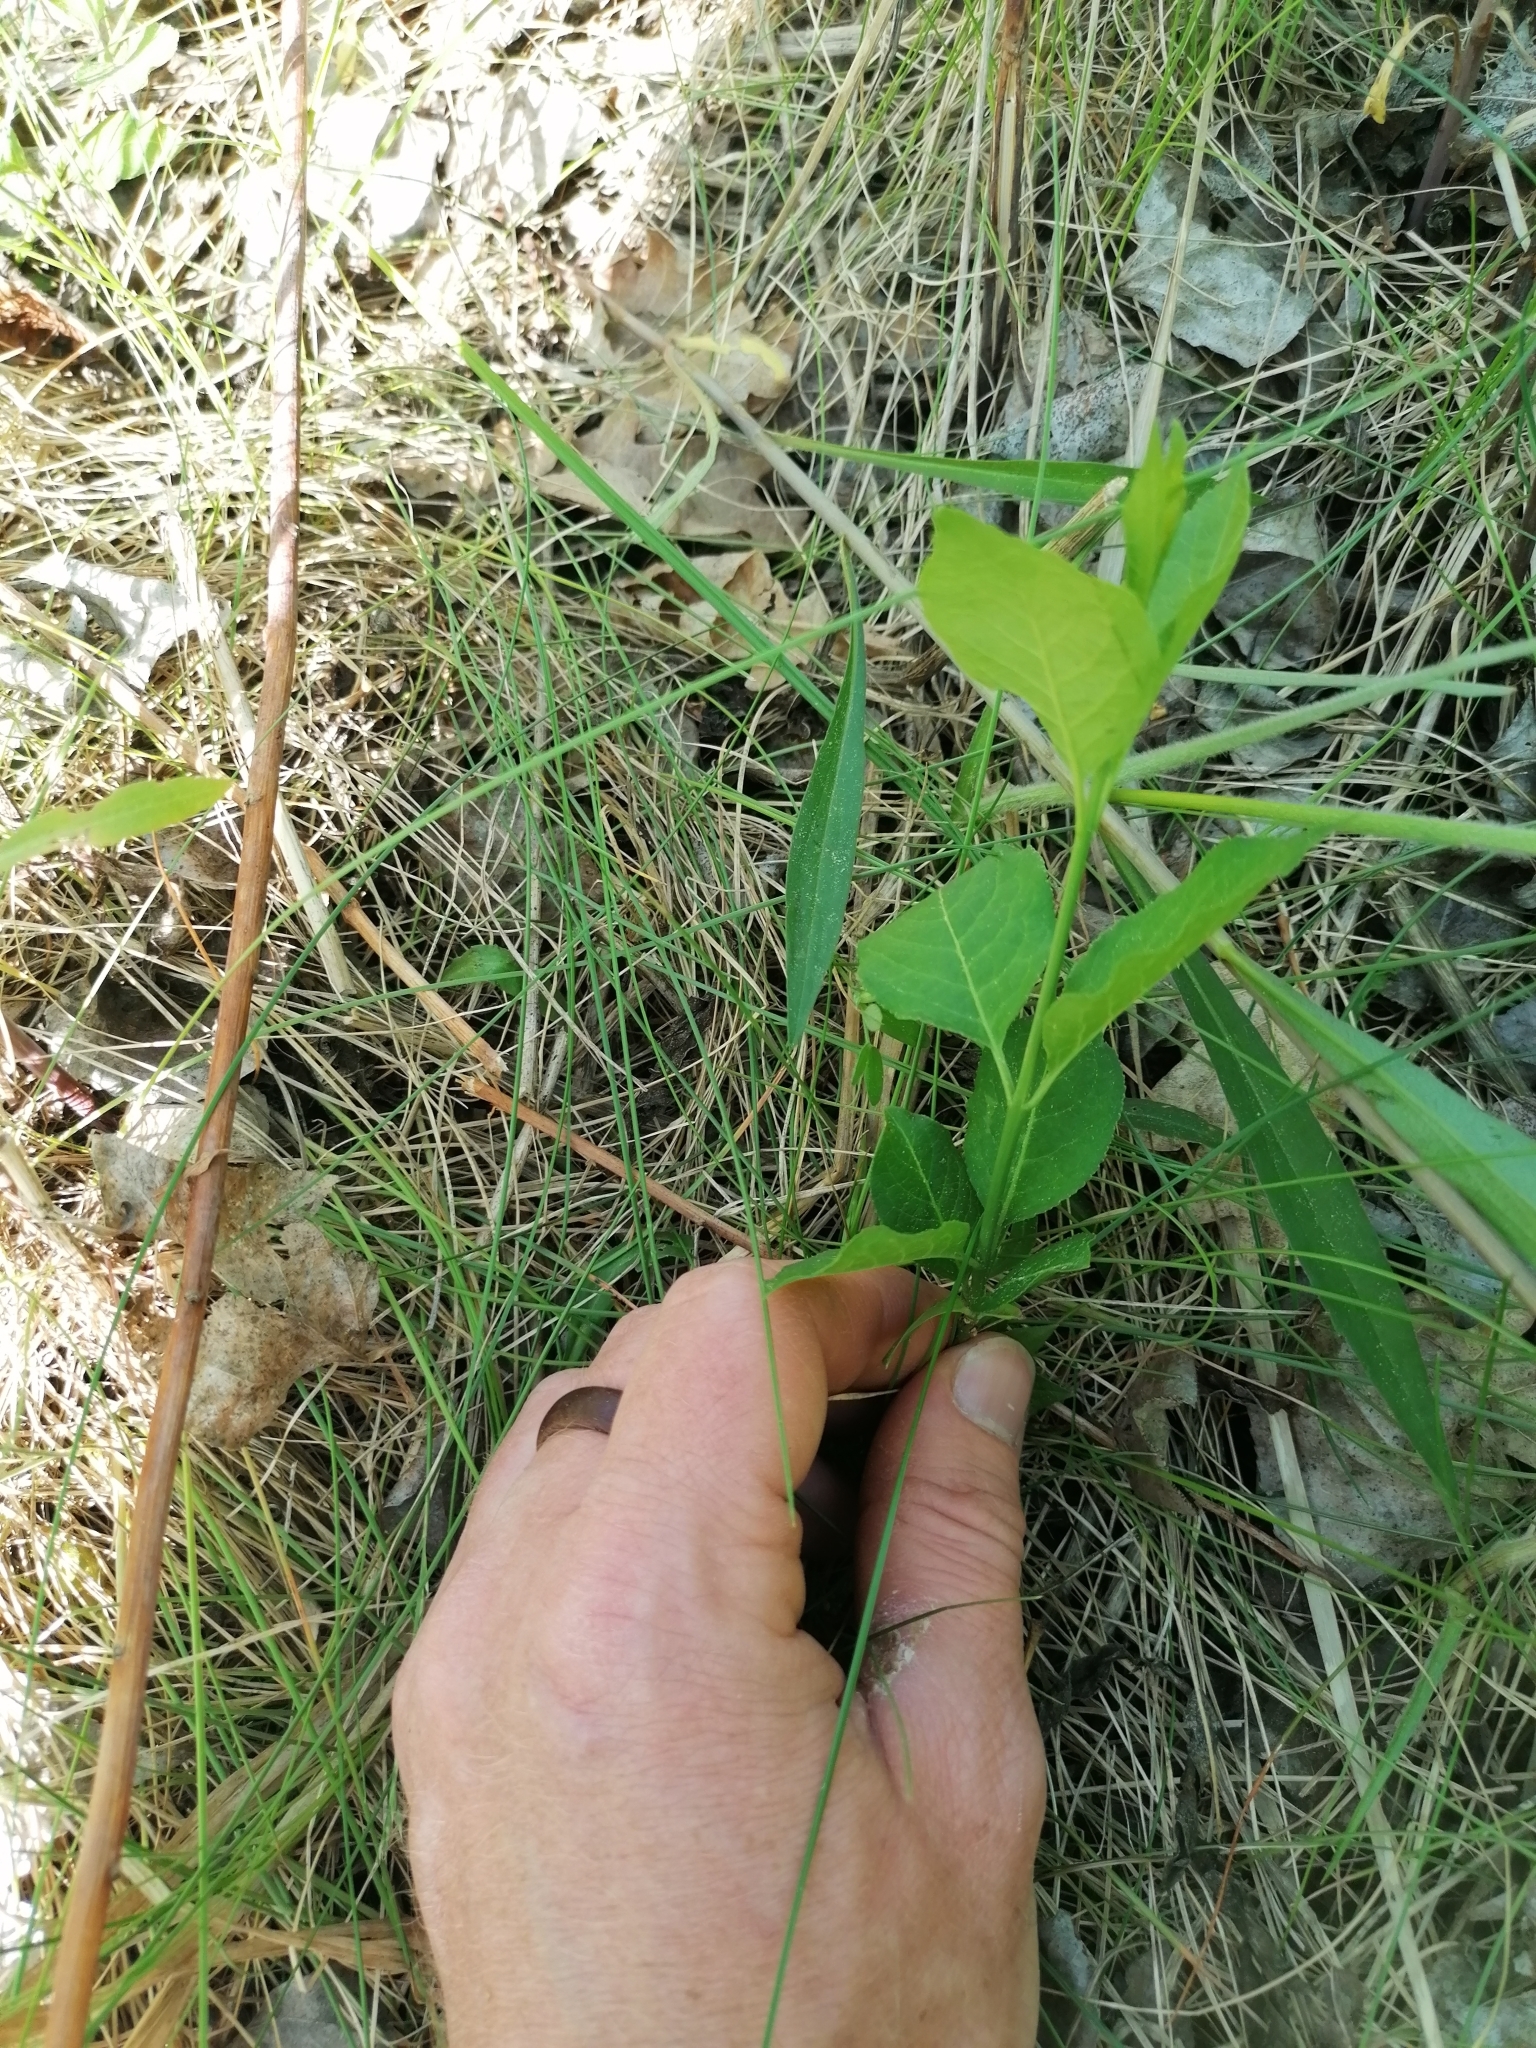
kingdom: Plantae
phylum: Tracheophyta
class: Magnoliopsida
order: Celastrales
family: Celastraceae
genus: Euonymus
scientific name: Euonymus europaeus
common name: Spindle
